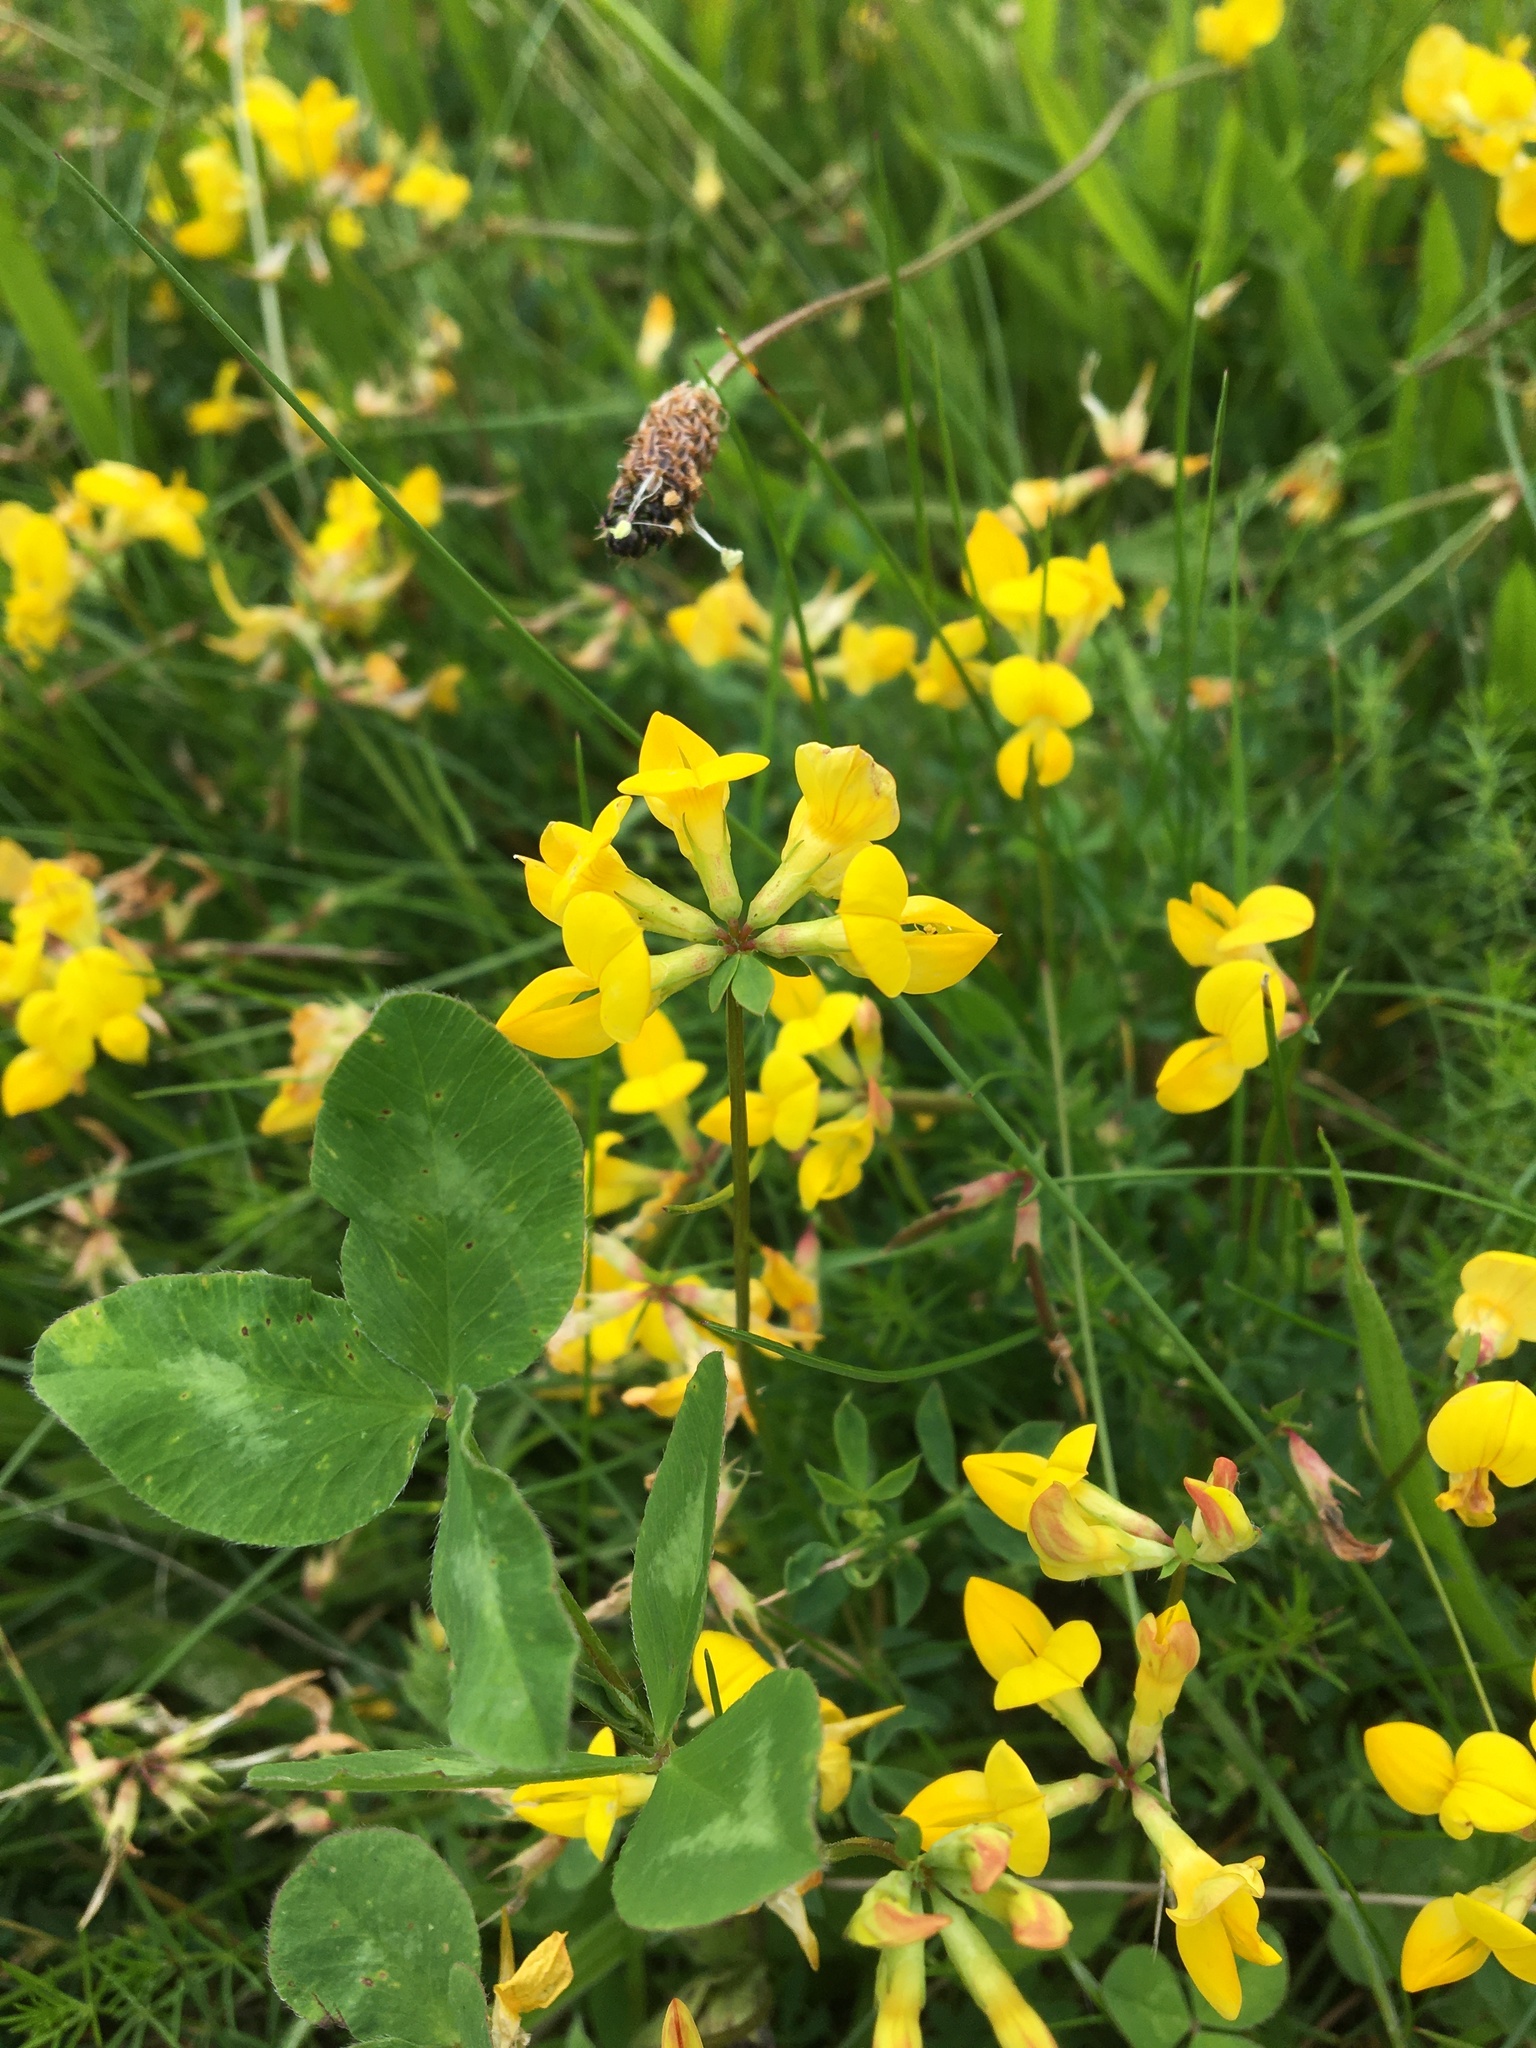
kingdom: Plantae
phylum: Tracheophyta
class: Magnoliopsida
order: Fabales
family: Fabaceae
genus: Lotus
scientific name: Lotus corniculatus
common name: Common bird's-foot-trefoil
